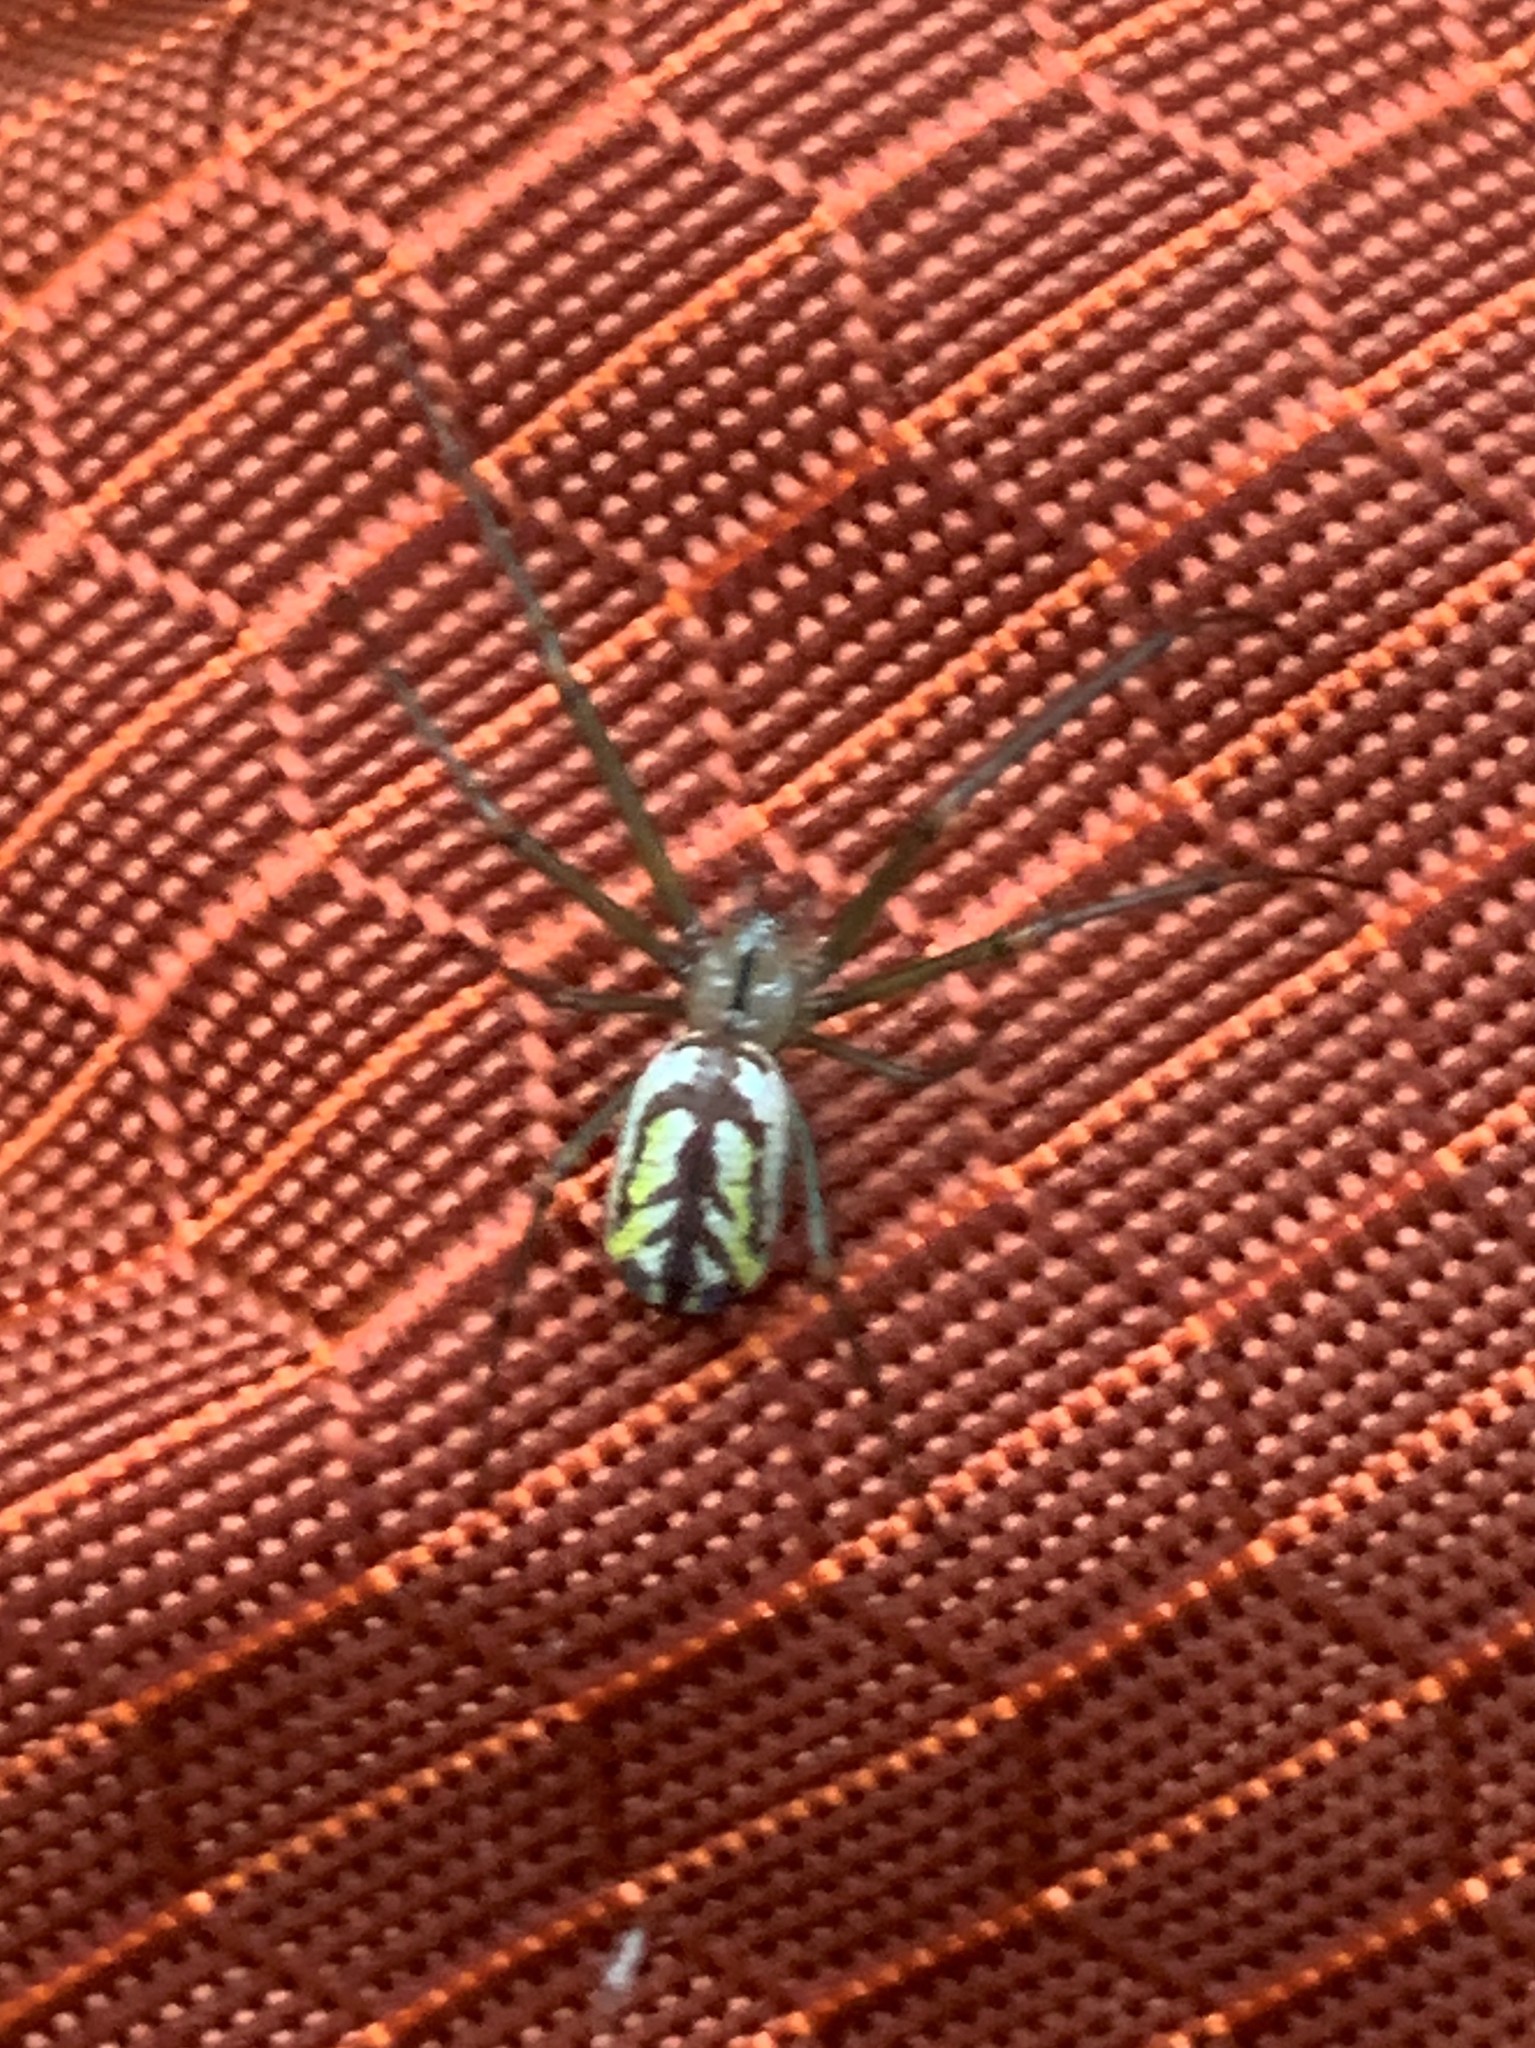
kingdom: Animalia
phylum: Arthropoda
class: Arachnida
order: Araneae
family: Tetragnathidae
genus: Leucauge
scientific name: Leucauge venusta
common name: Longjawed orb weavers
